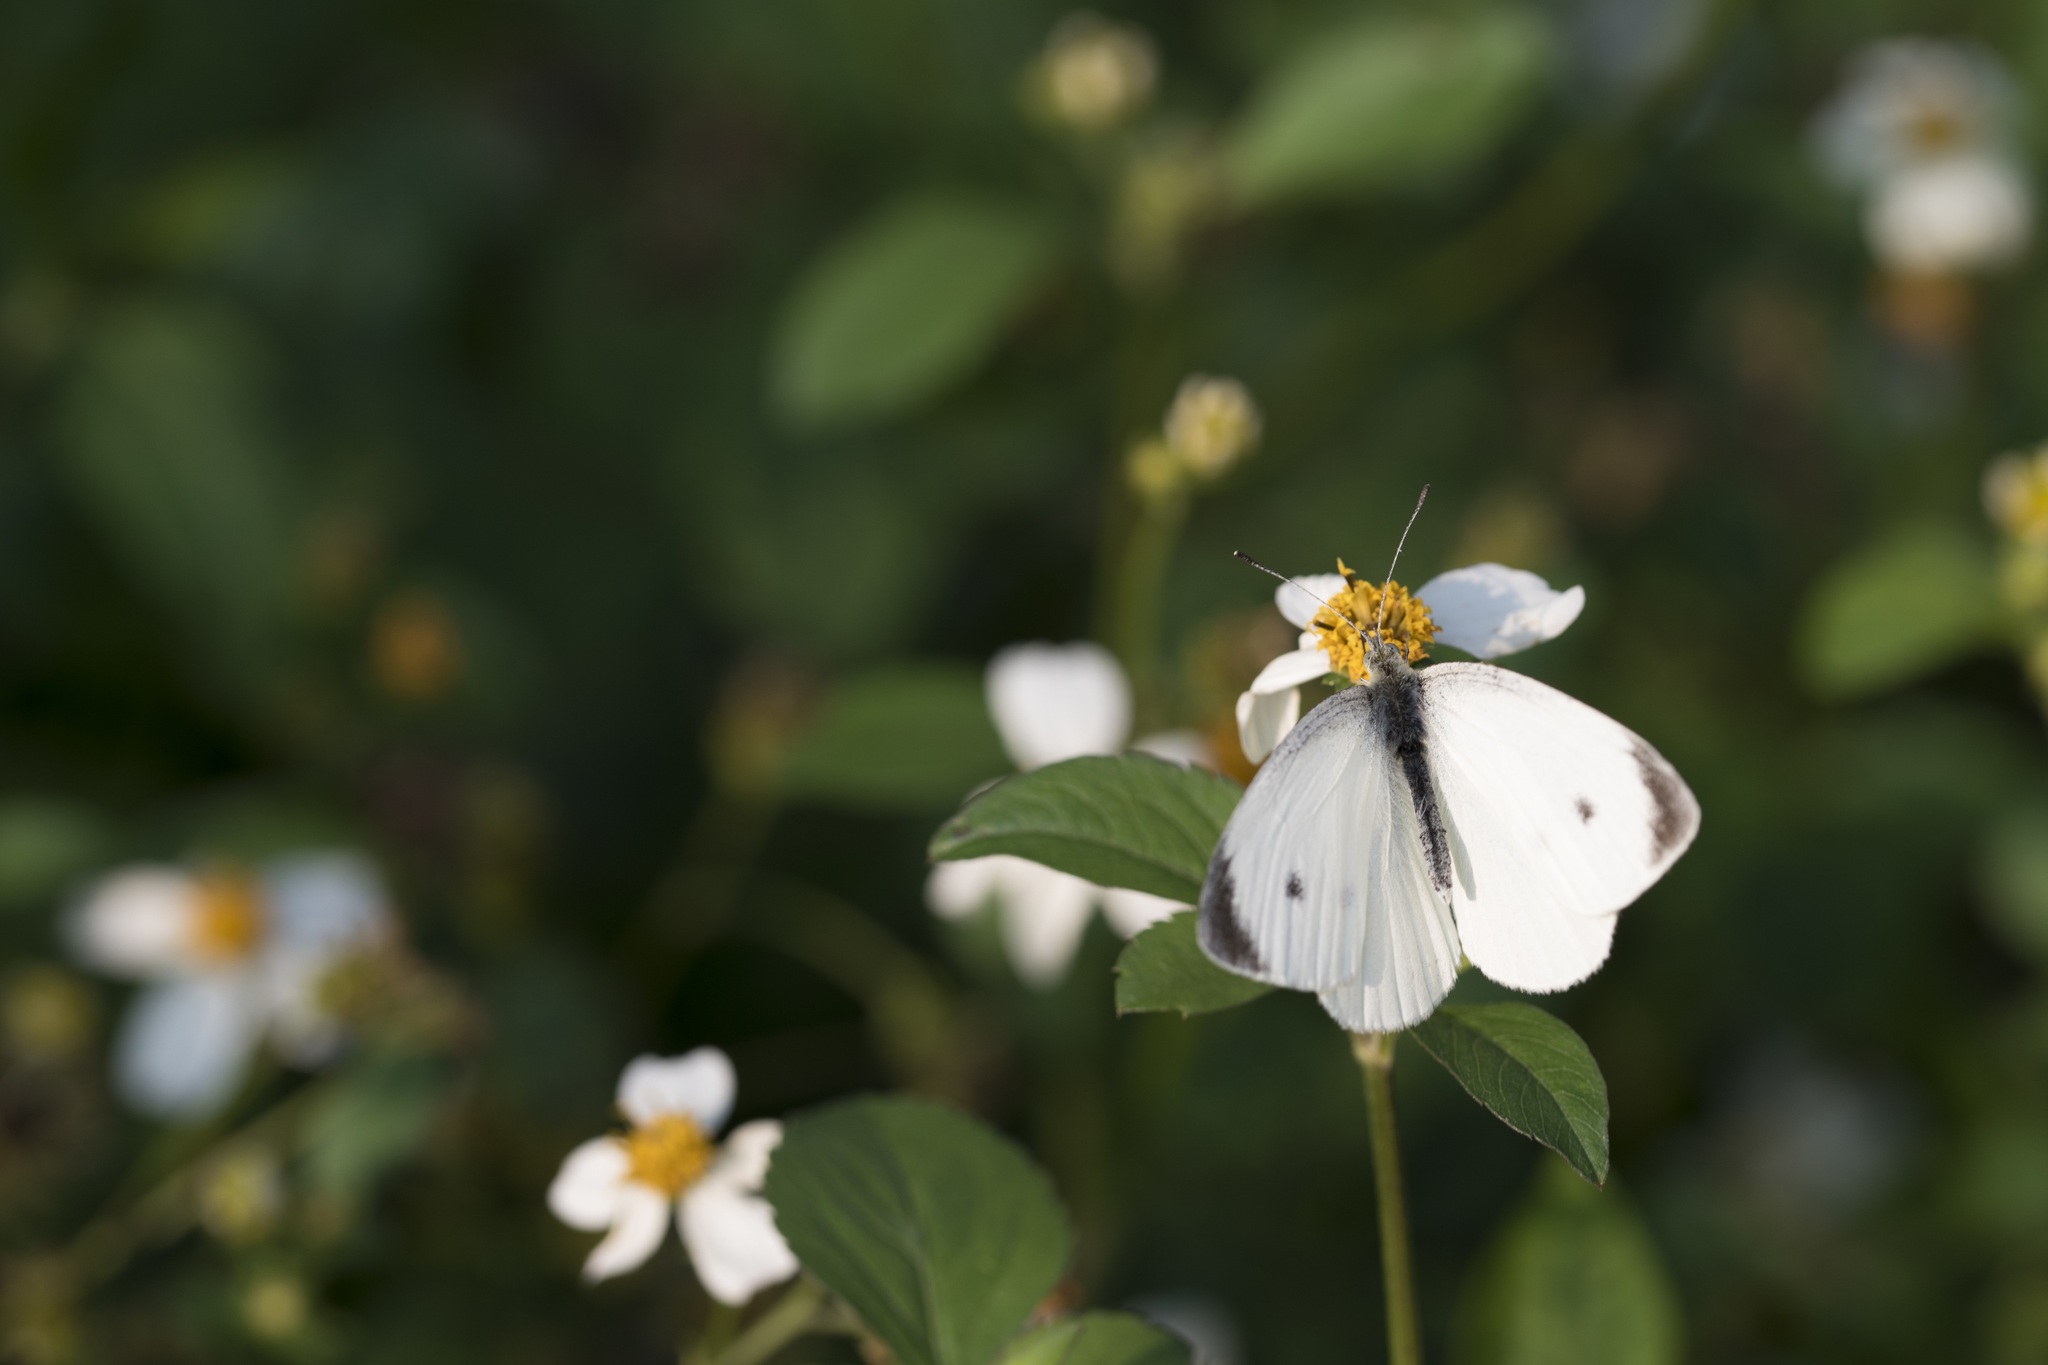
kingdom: Animalia
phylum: Arthropoda
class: Insecta
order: Lepidoptera
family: Pieridae
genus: Pieris
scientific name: Pieris rapae
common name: Small white
